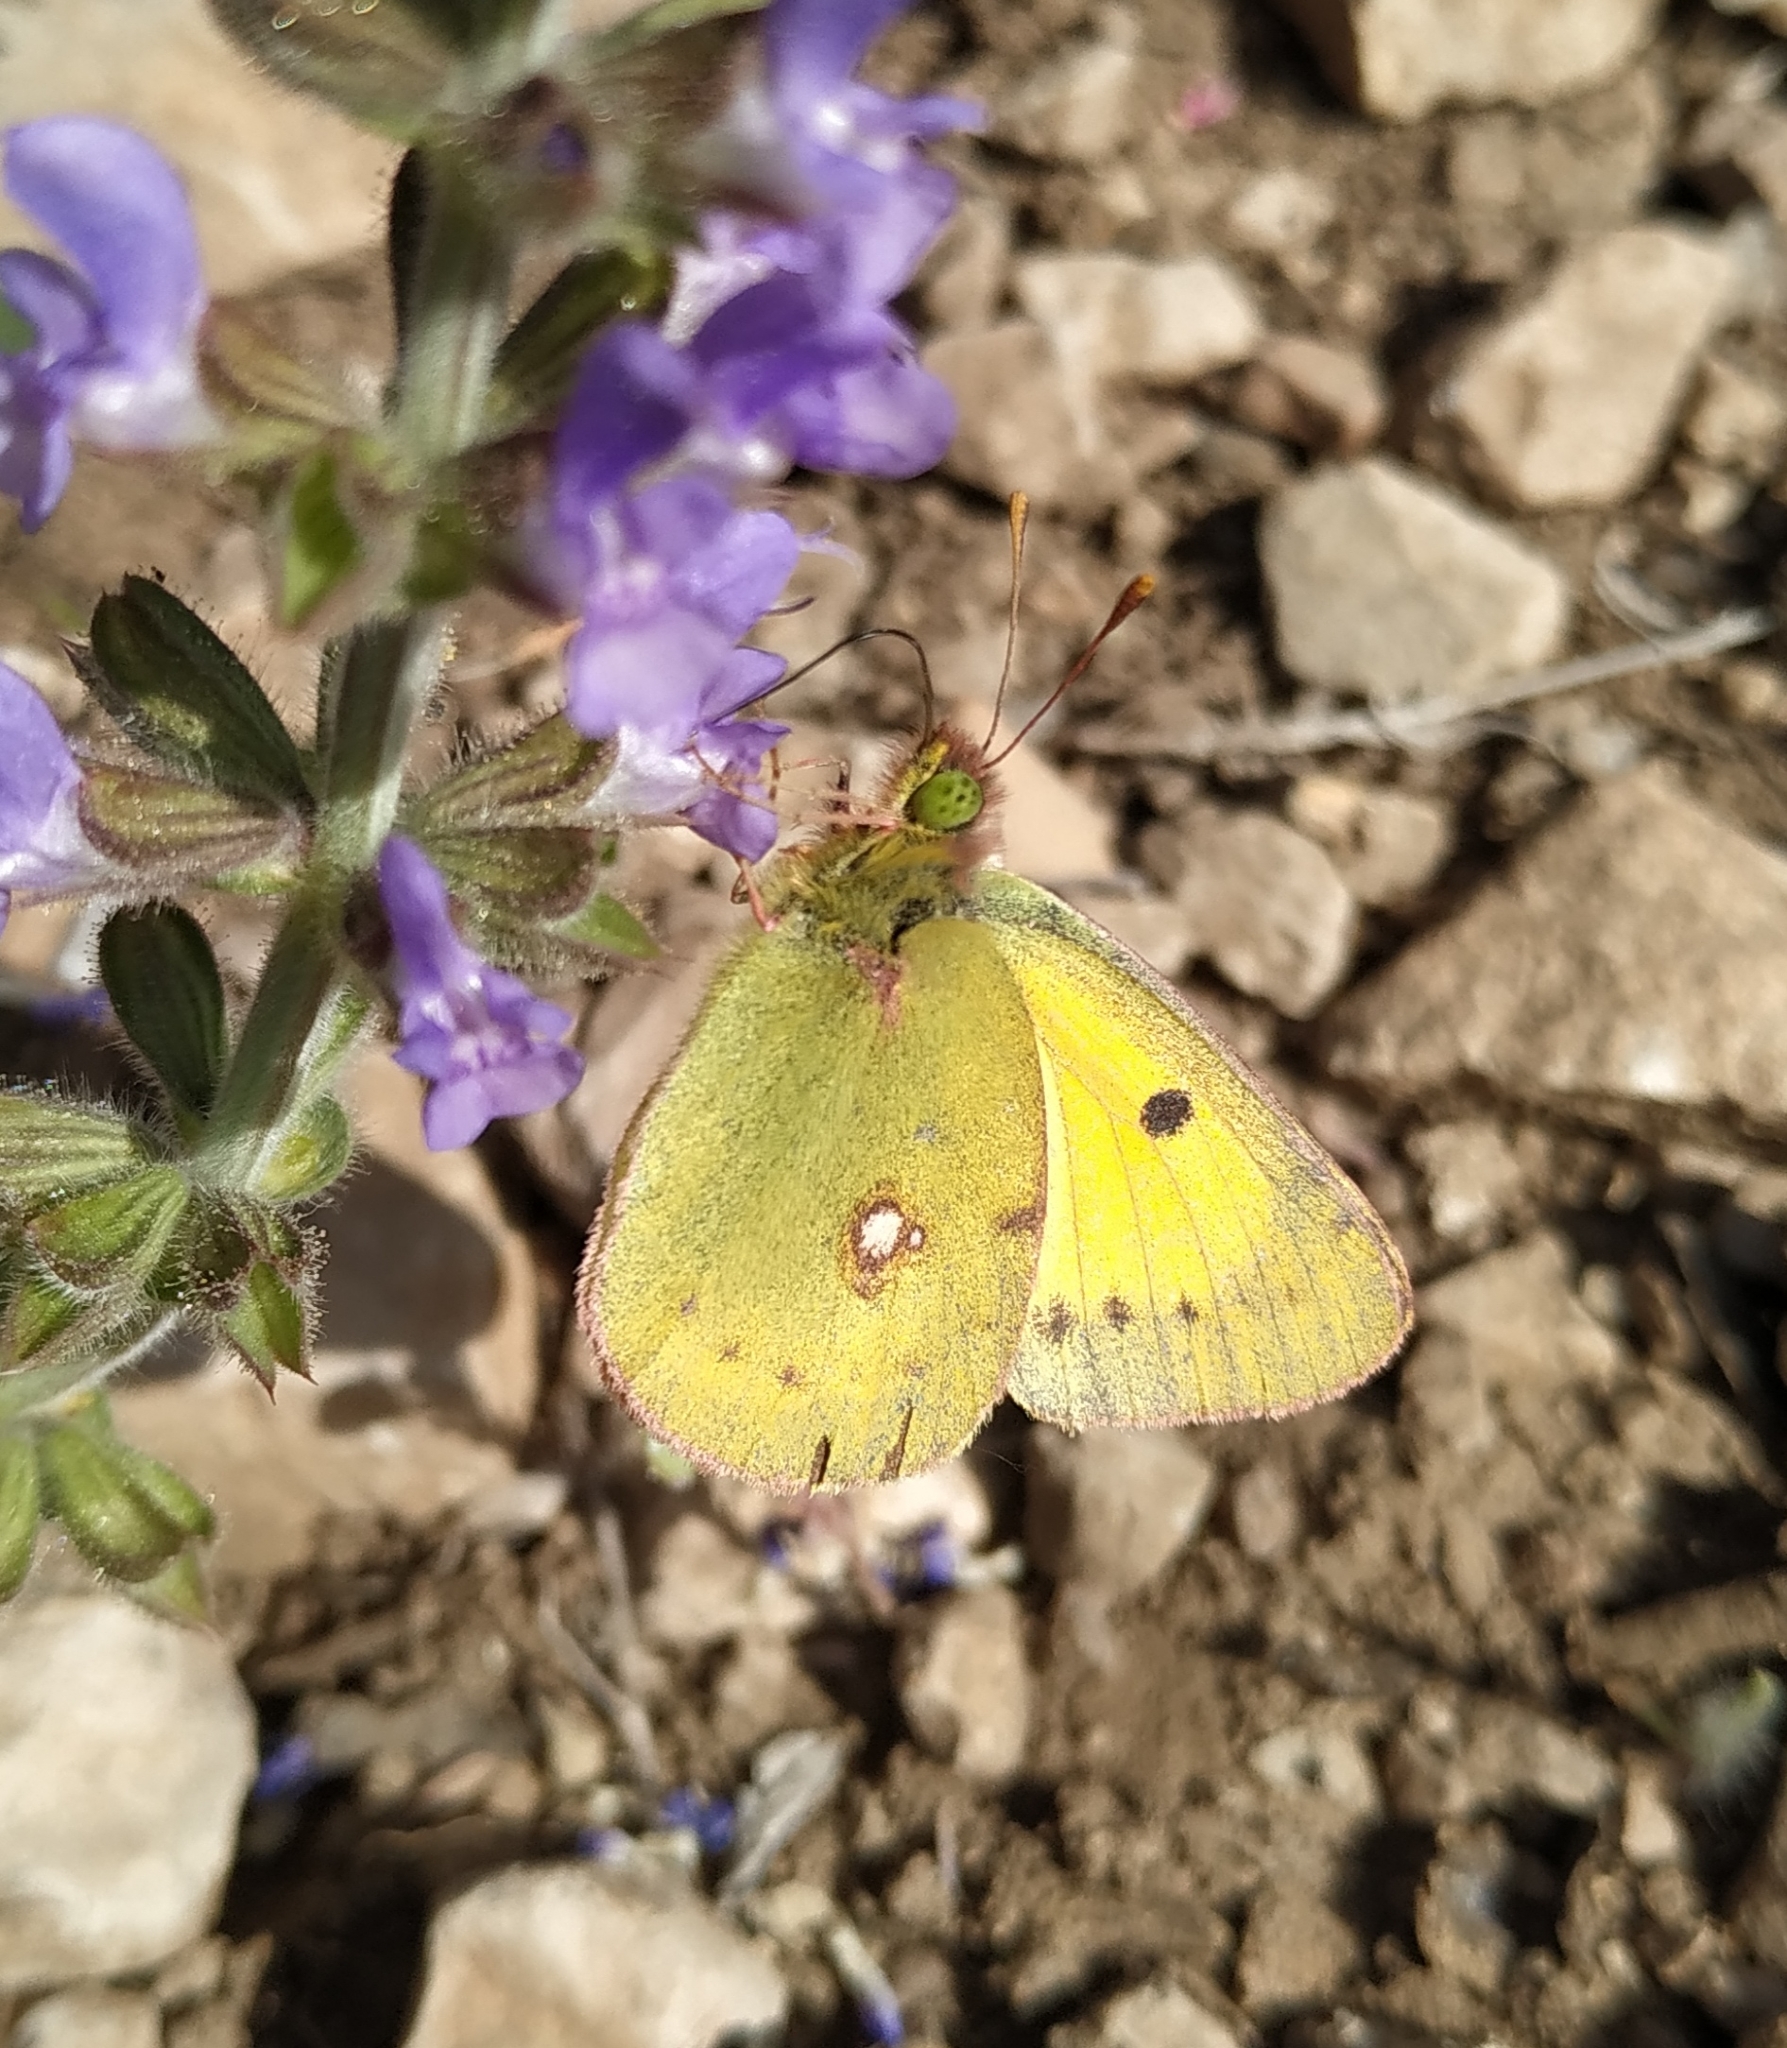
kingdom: Animalia
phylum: Arthropoda
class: Insecta
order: Lepidoptera
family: Pieridae
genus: Colias
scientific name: Colias croceus
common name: Clouded yellow
